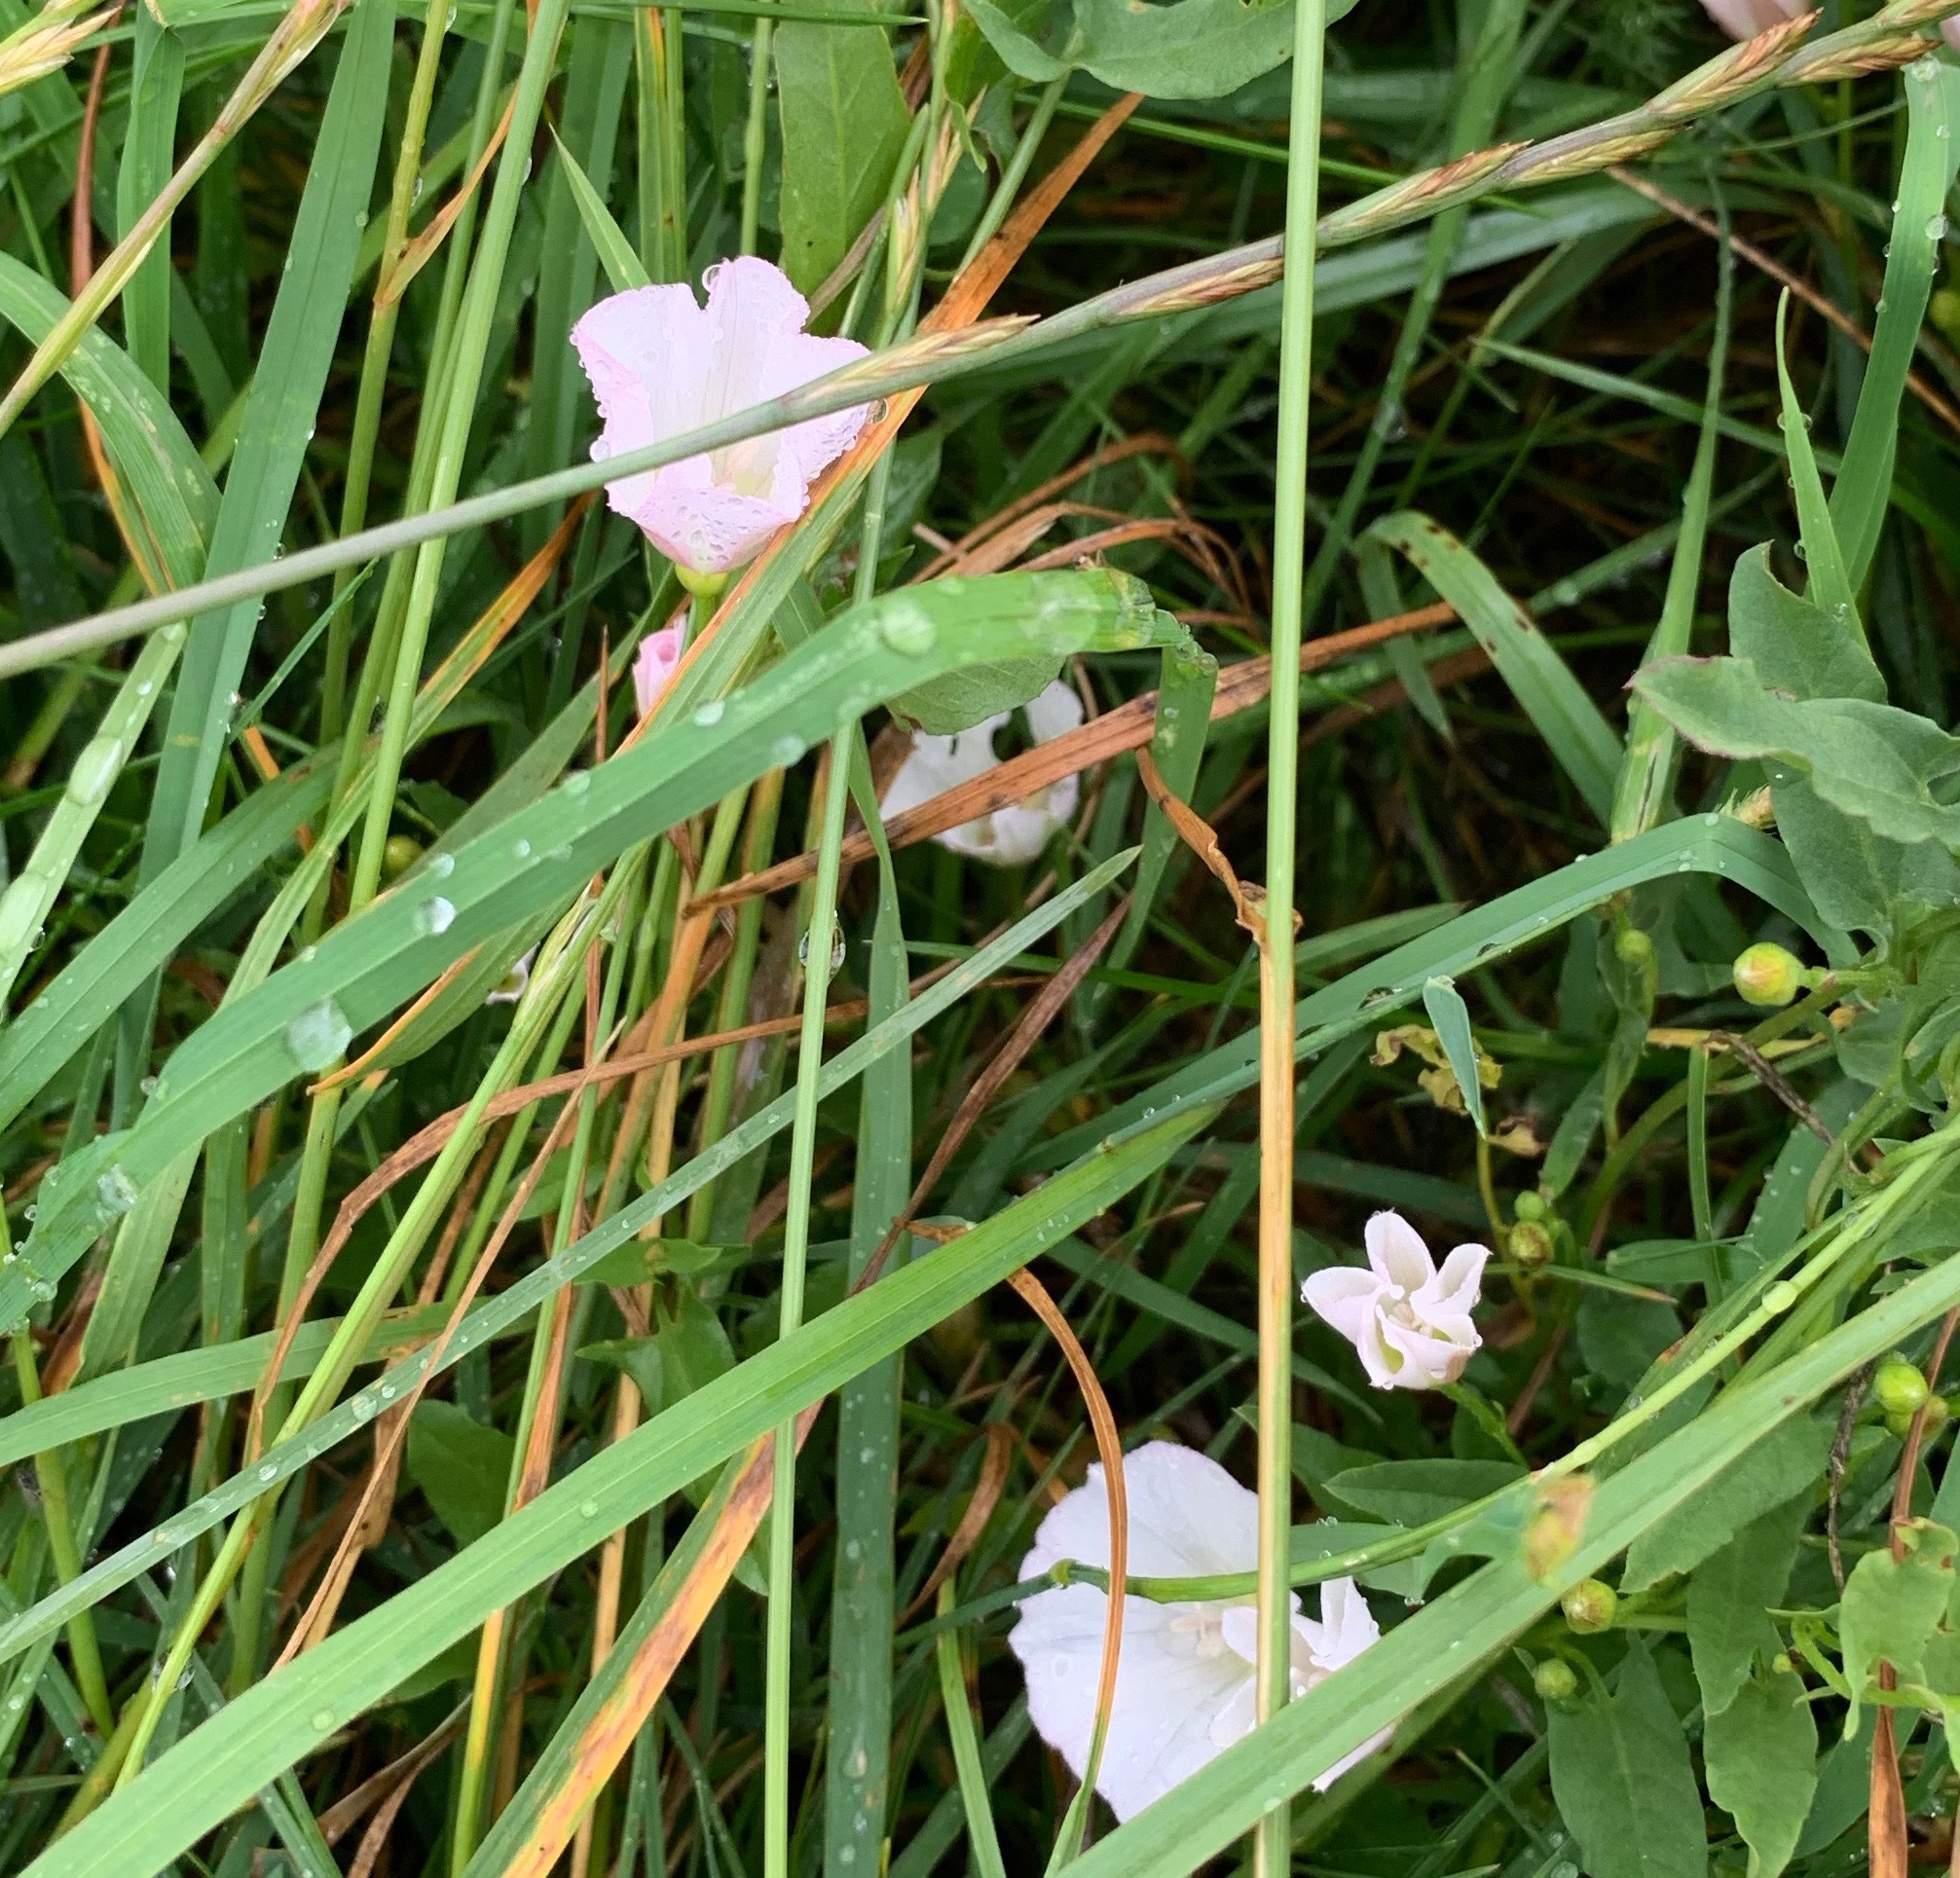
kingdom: Plantae
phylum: Tracheophyta
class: Magnoliopsida
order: Solanales
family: Convolvulaceae
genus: Convolvulus
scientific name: Convolvulus arvensis
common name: Field bindweed
